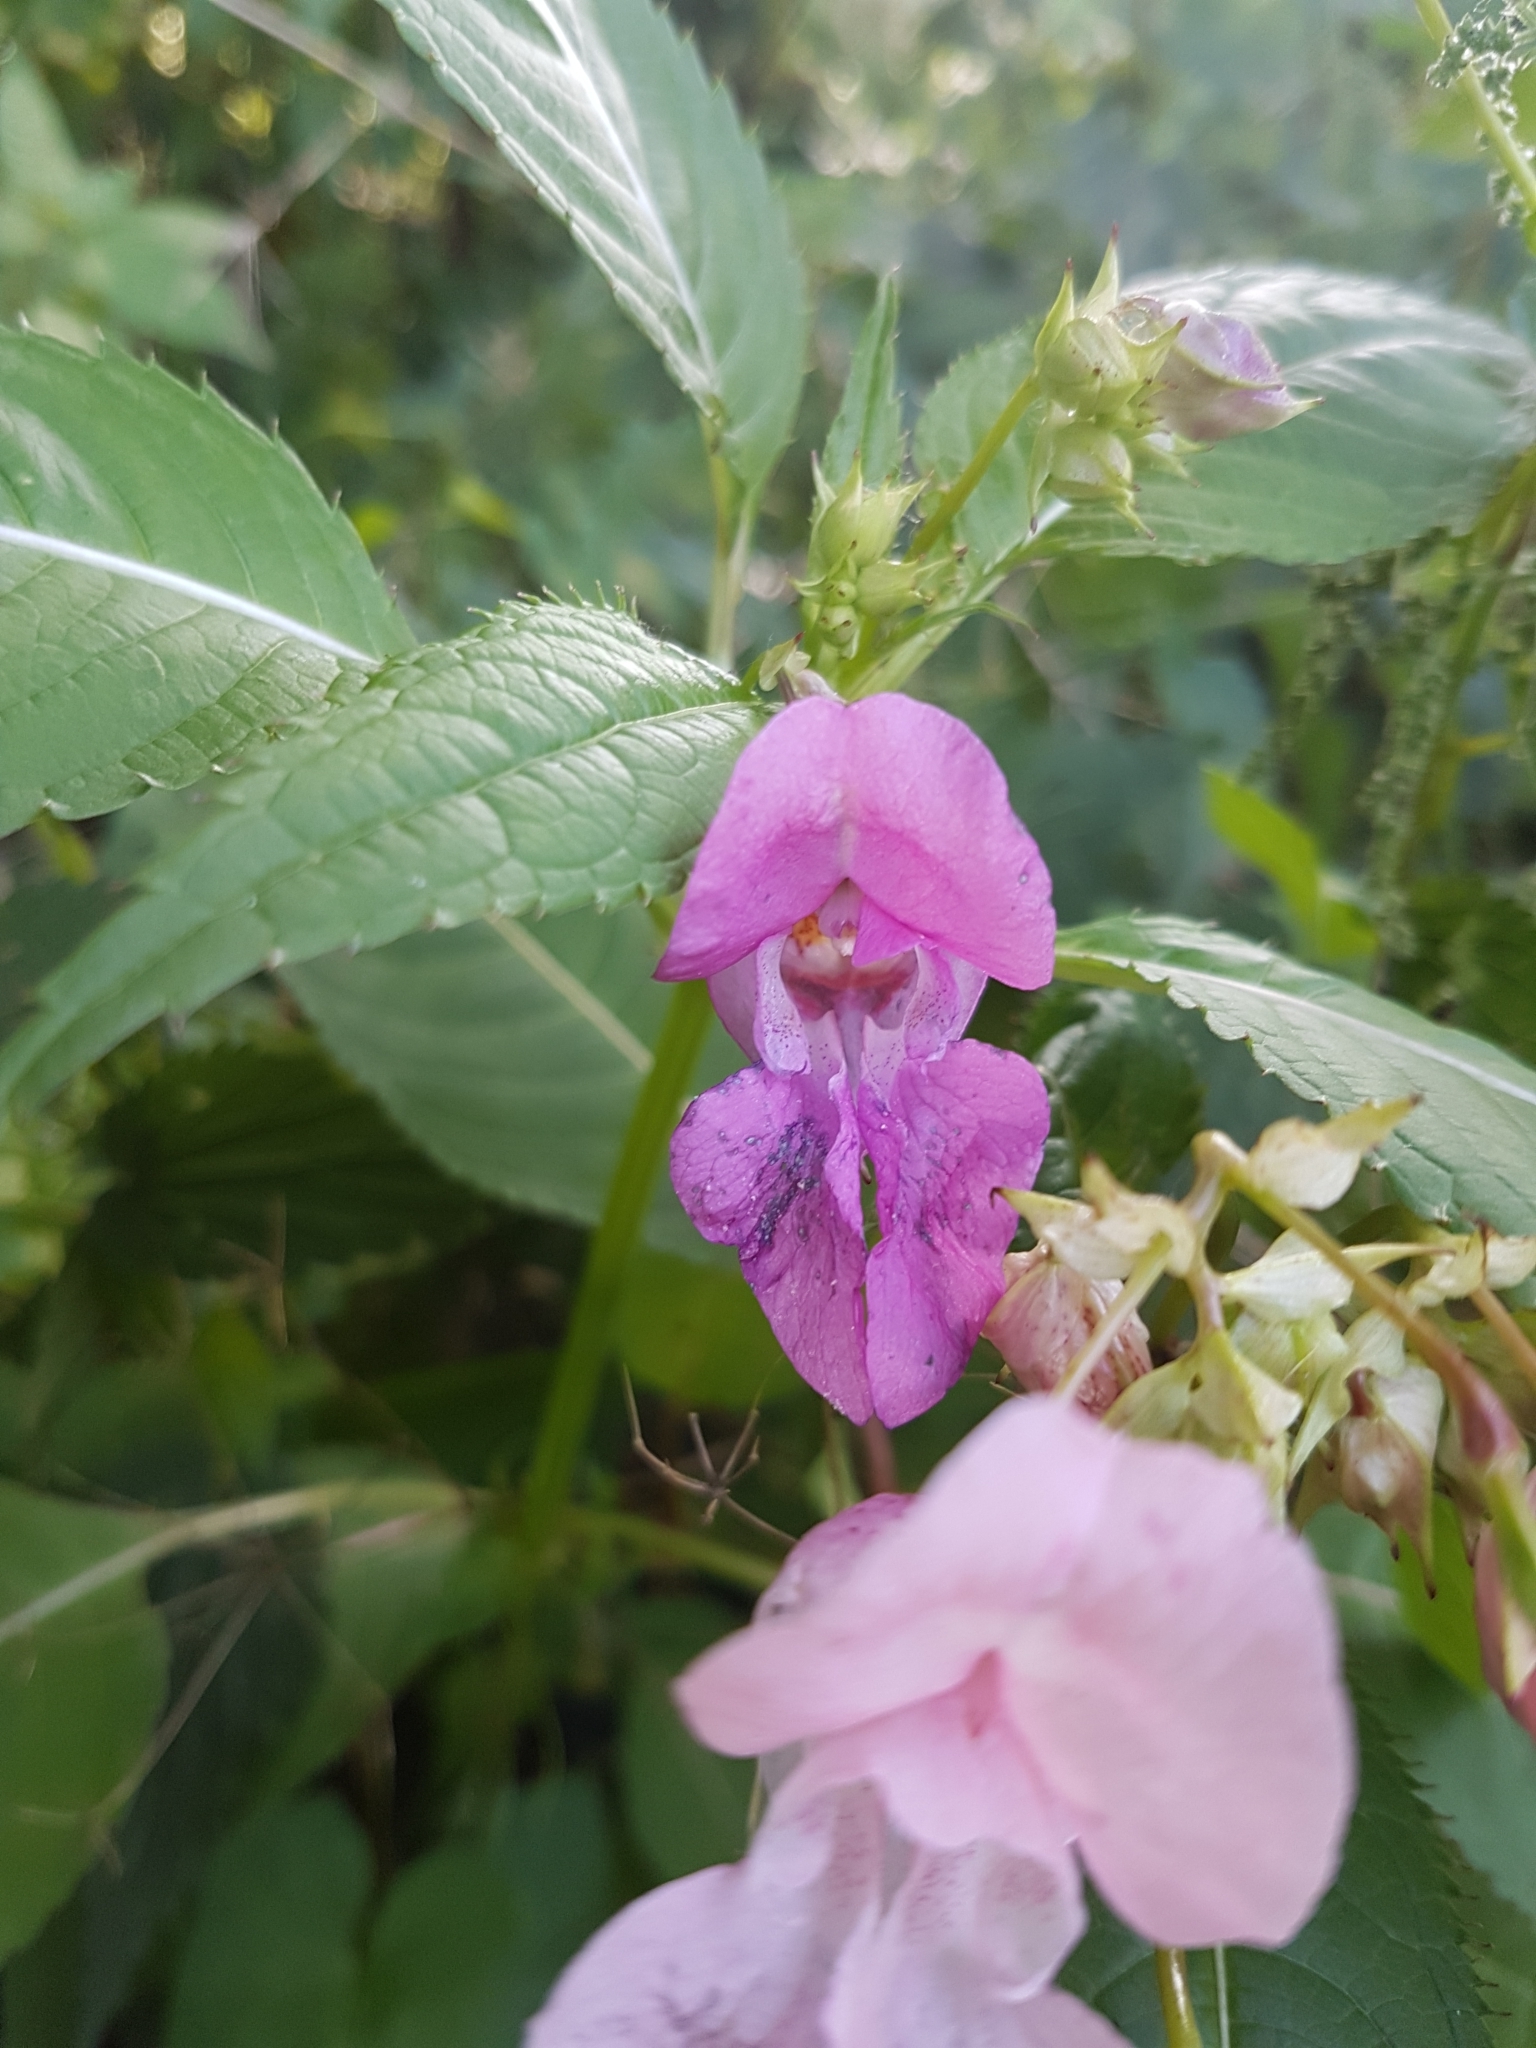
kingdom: Plantae
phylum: Tracheophyta
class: Magnoliopsida
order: Ericales
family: Balsaminaceae
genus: Impatiens
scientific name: Impatiens glandulifera
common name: Himalayan balsam
